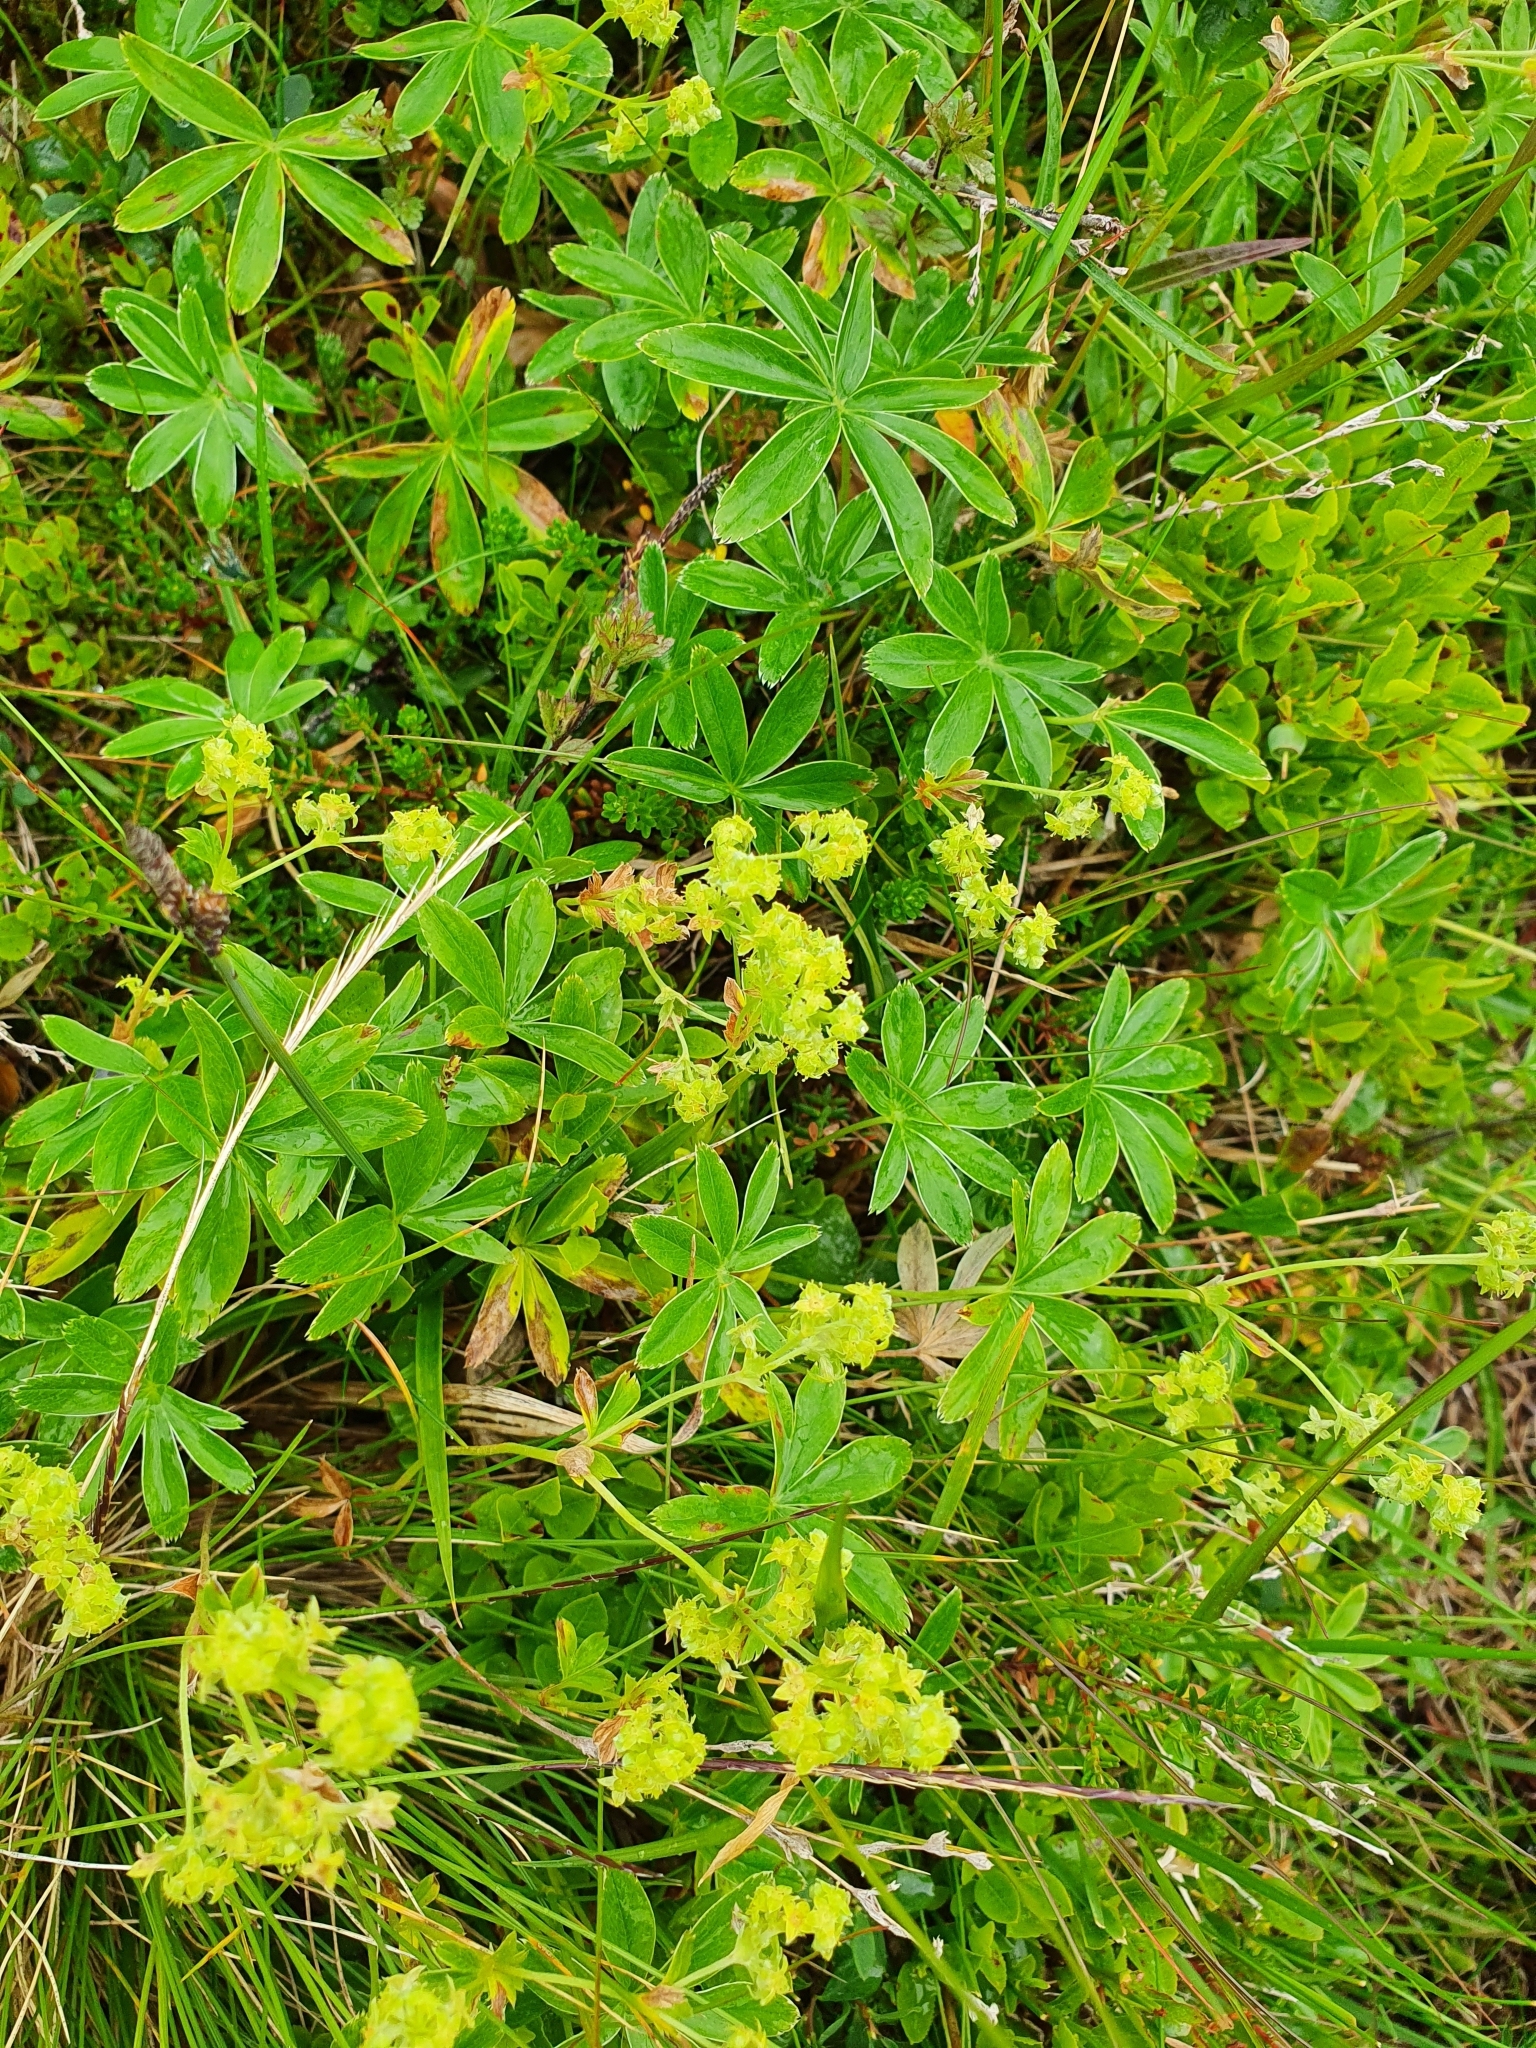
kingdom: Plantae
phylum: Tracheophyta
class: Magnoliopsida
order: Rosales
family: Rosaceae
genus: Alchemilla
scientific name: Alchemilla alpina
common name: Alpine lady's-mantle
